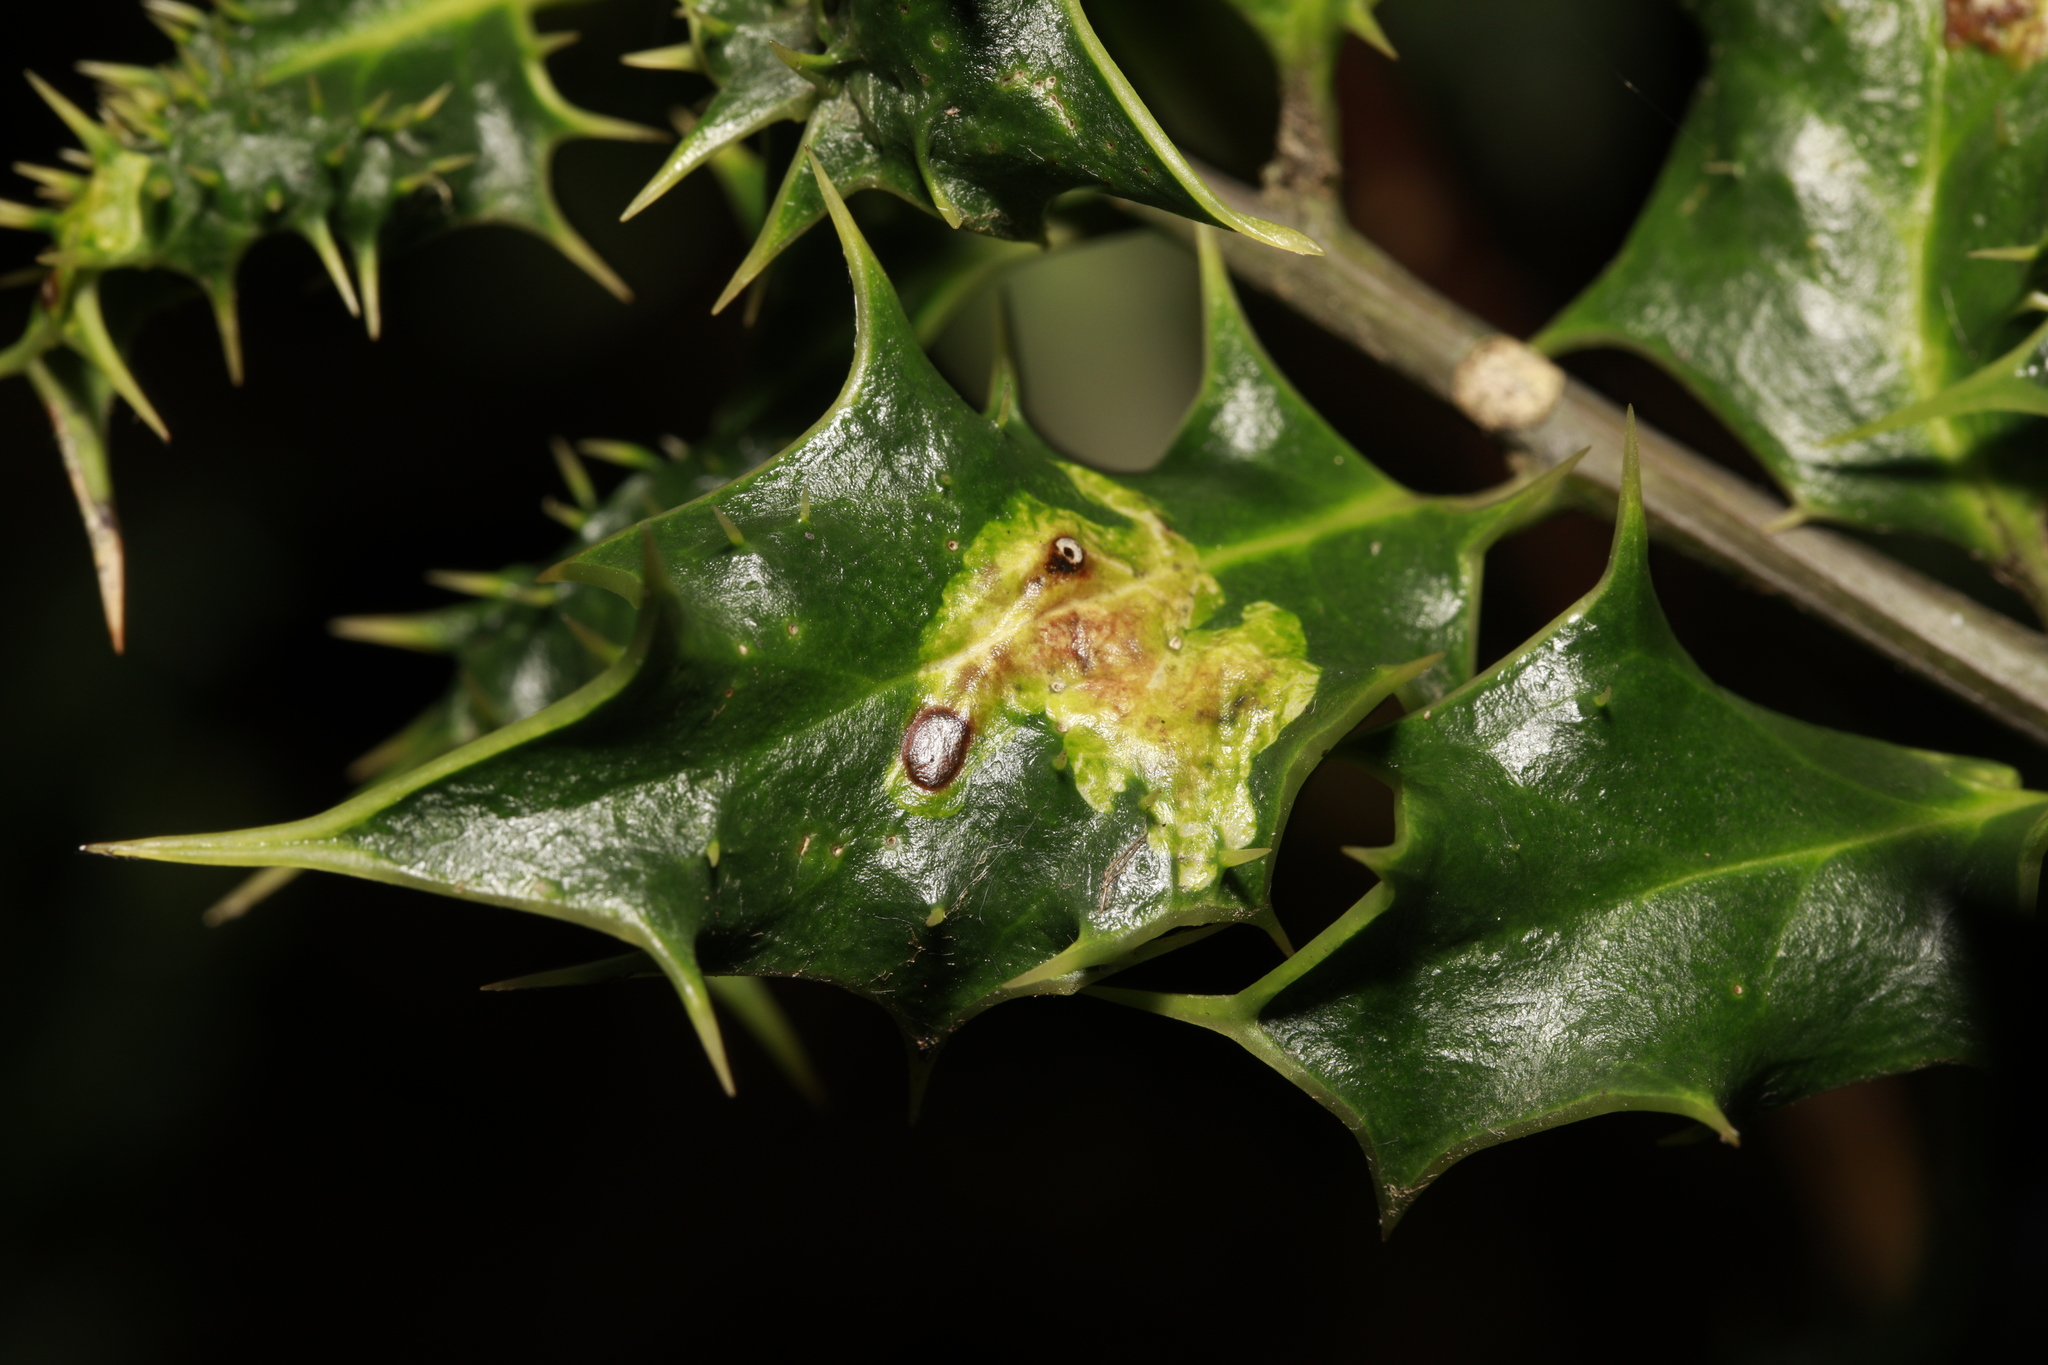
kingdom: Animalia
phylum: Arthropoda
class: Insecta
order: Diptera
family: Agromyzidae
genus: Phytomyza
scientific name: Phytomyza ilicis
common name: Holly leafminer
